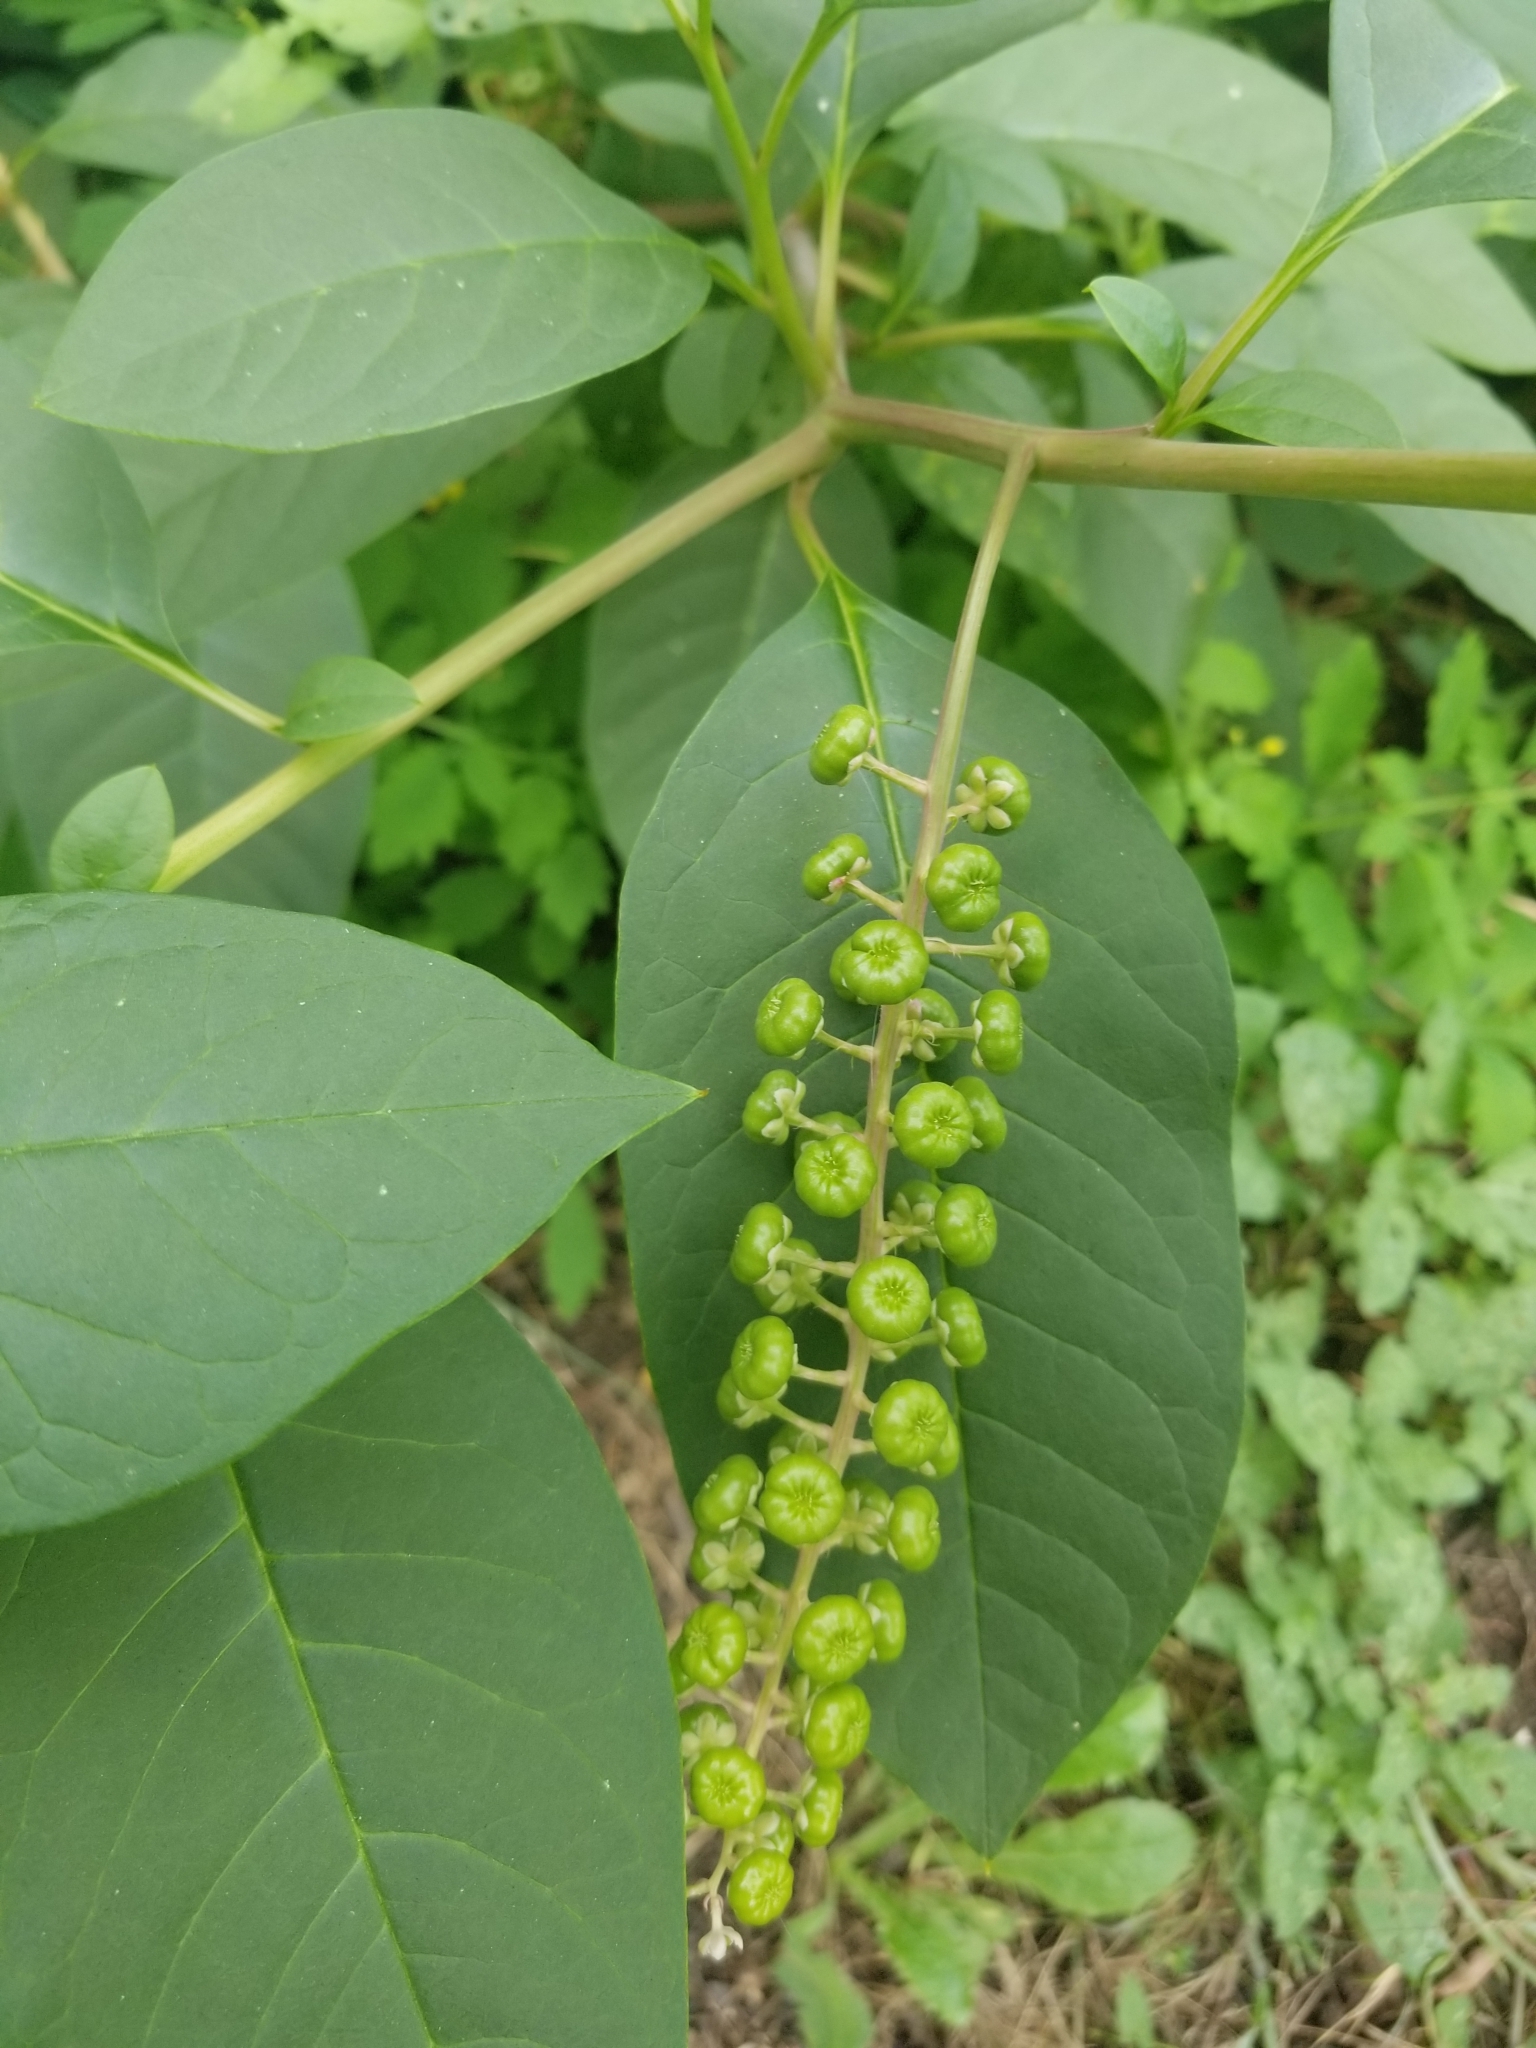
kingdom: Plantae
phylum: Tracheophyta
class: Magnoliopsida
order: Caryophyllales
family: Phytolaccaceae
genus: Phytolacca
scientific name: Phytolacca americana
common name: American pokeweed
